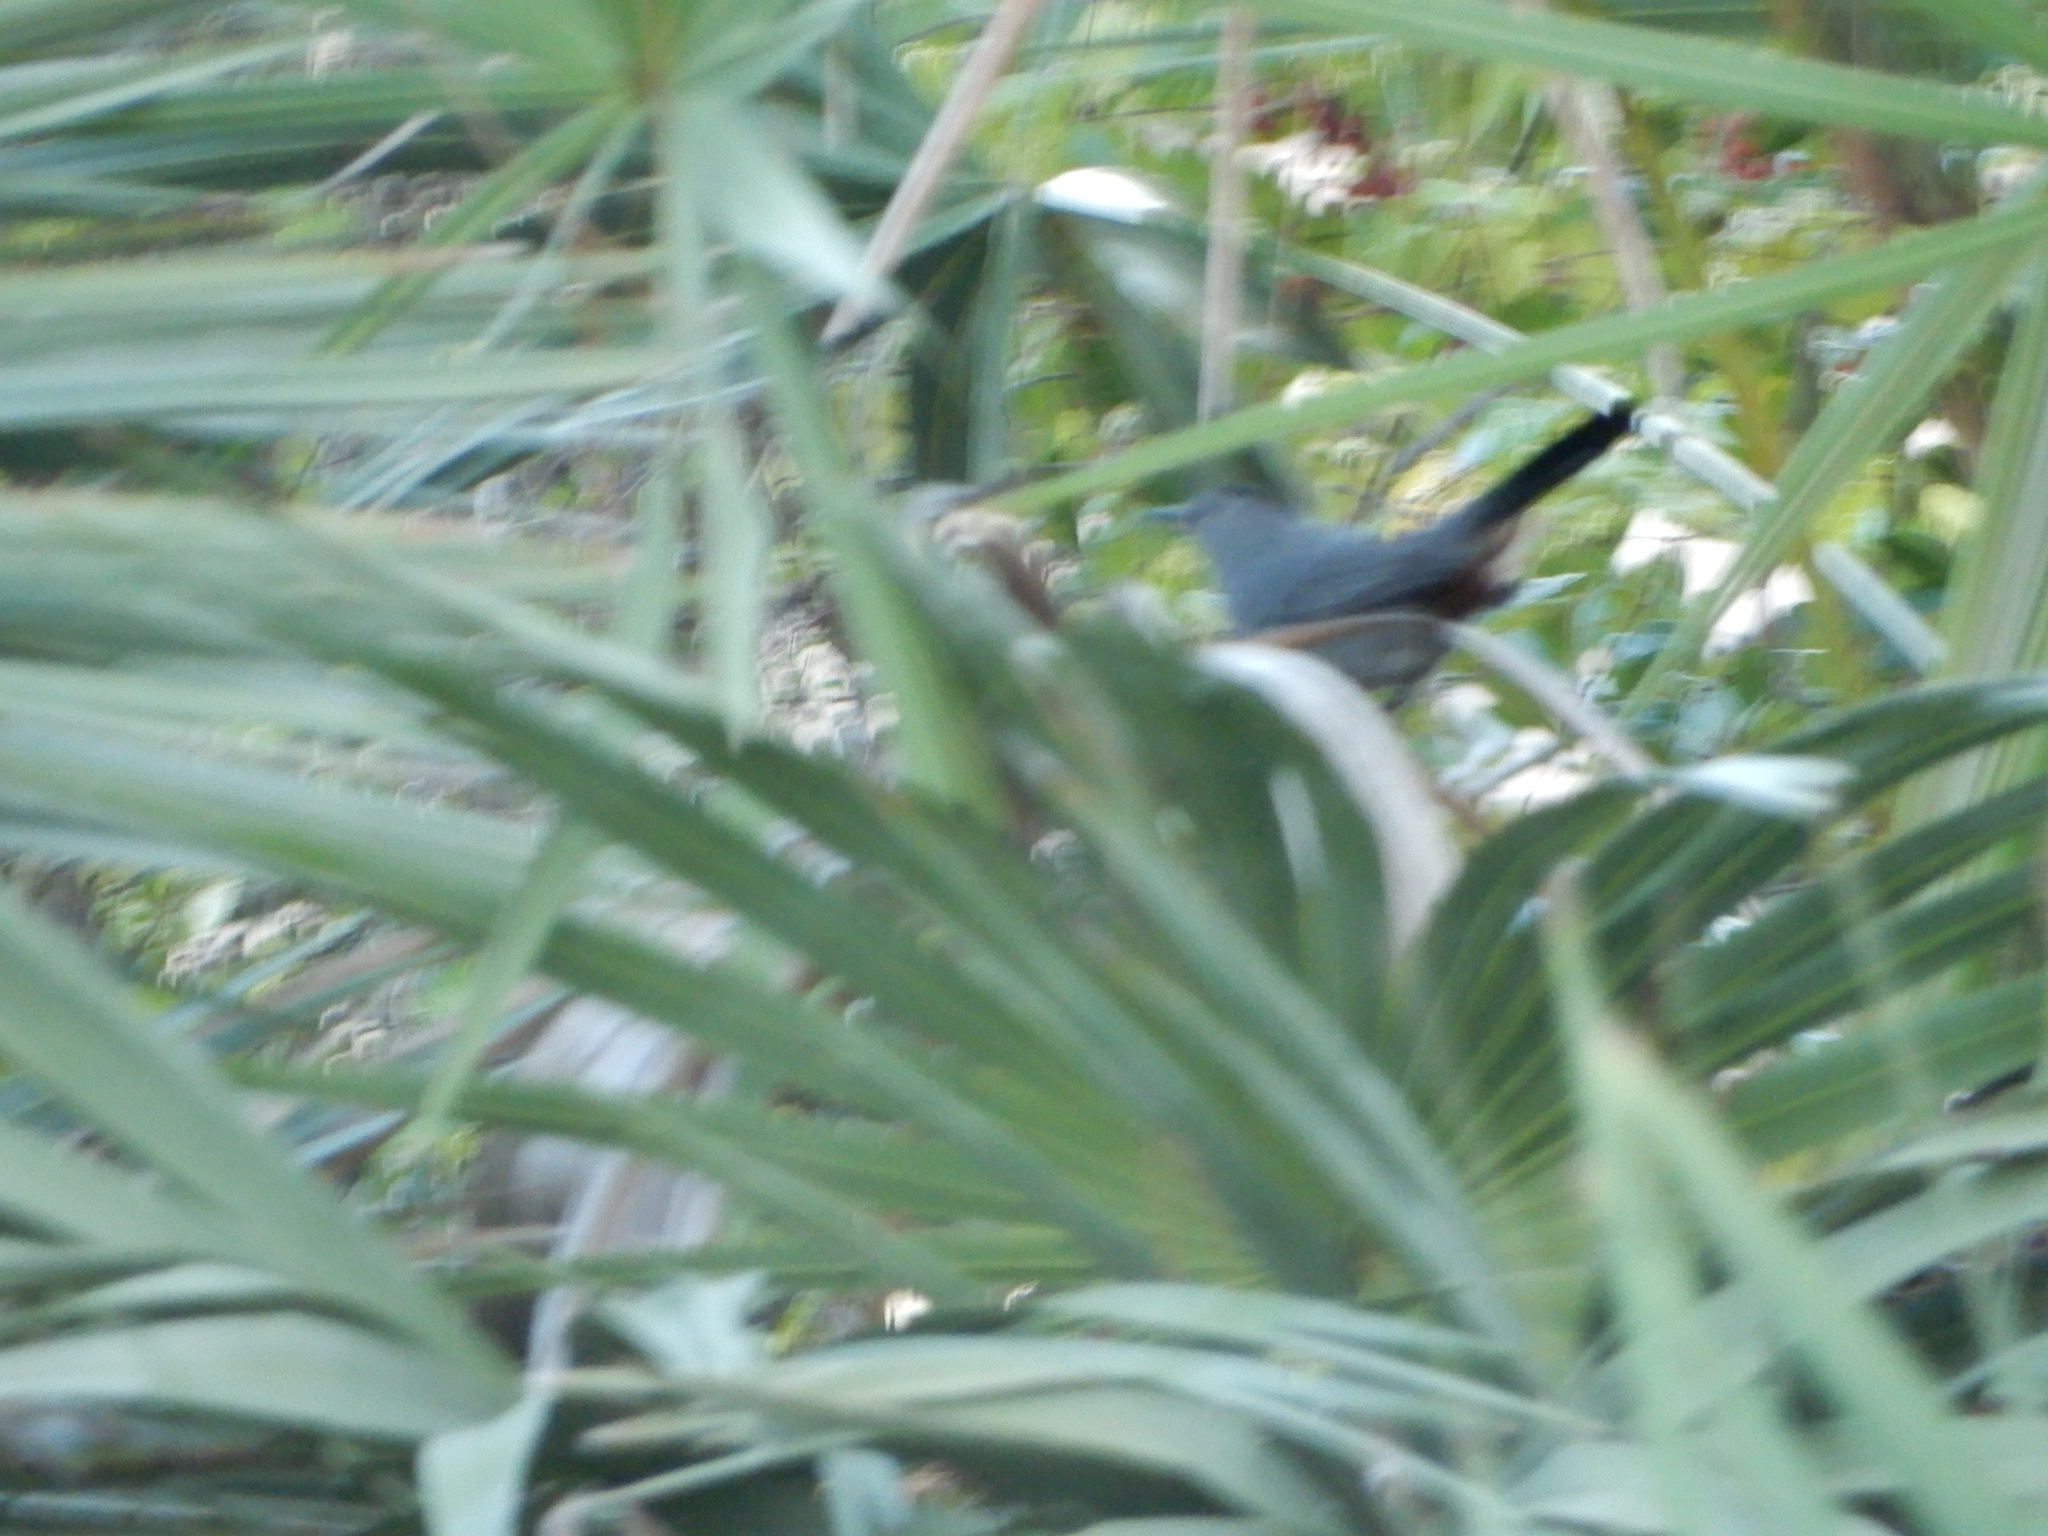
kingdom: Animalia
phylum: Chordata
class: Aves
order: Passeriformes
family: Mimidae
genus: Dumetella
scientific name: Dumetella carolinensis
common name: Gray catbird
